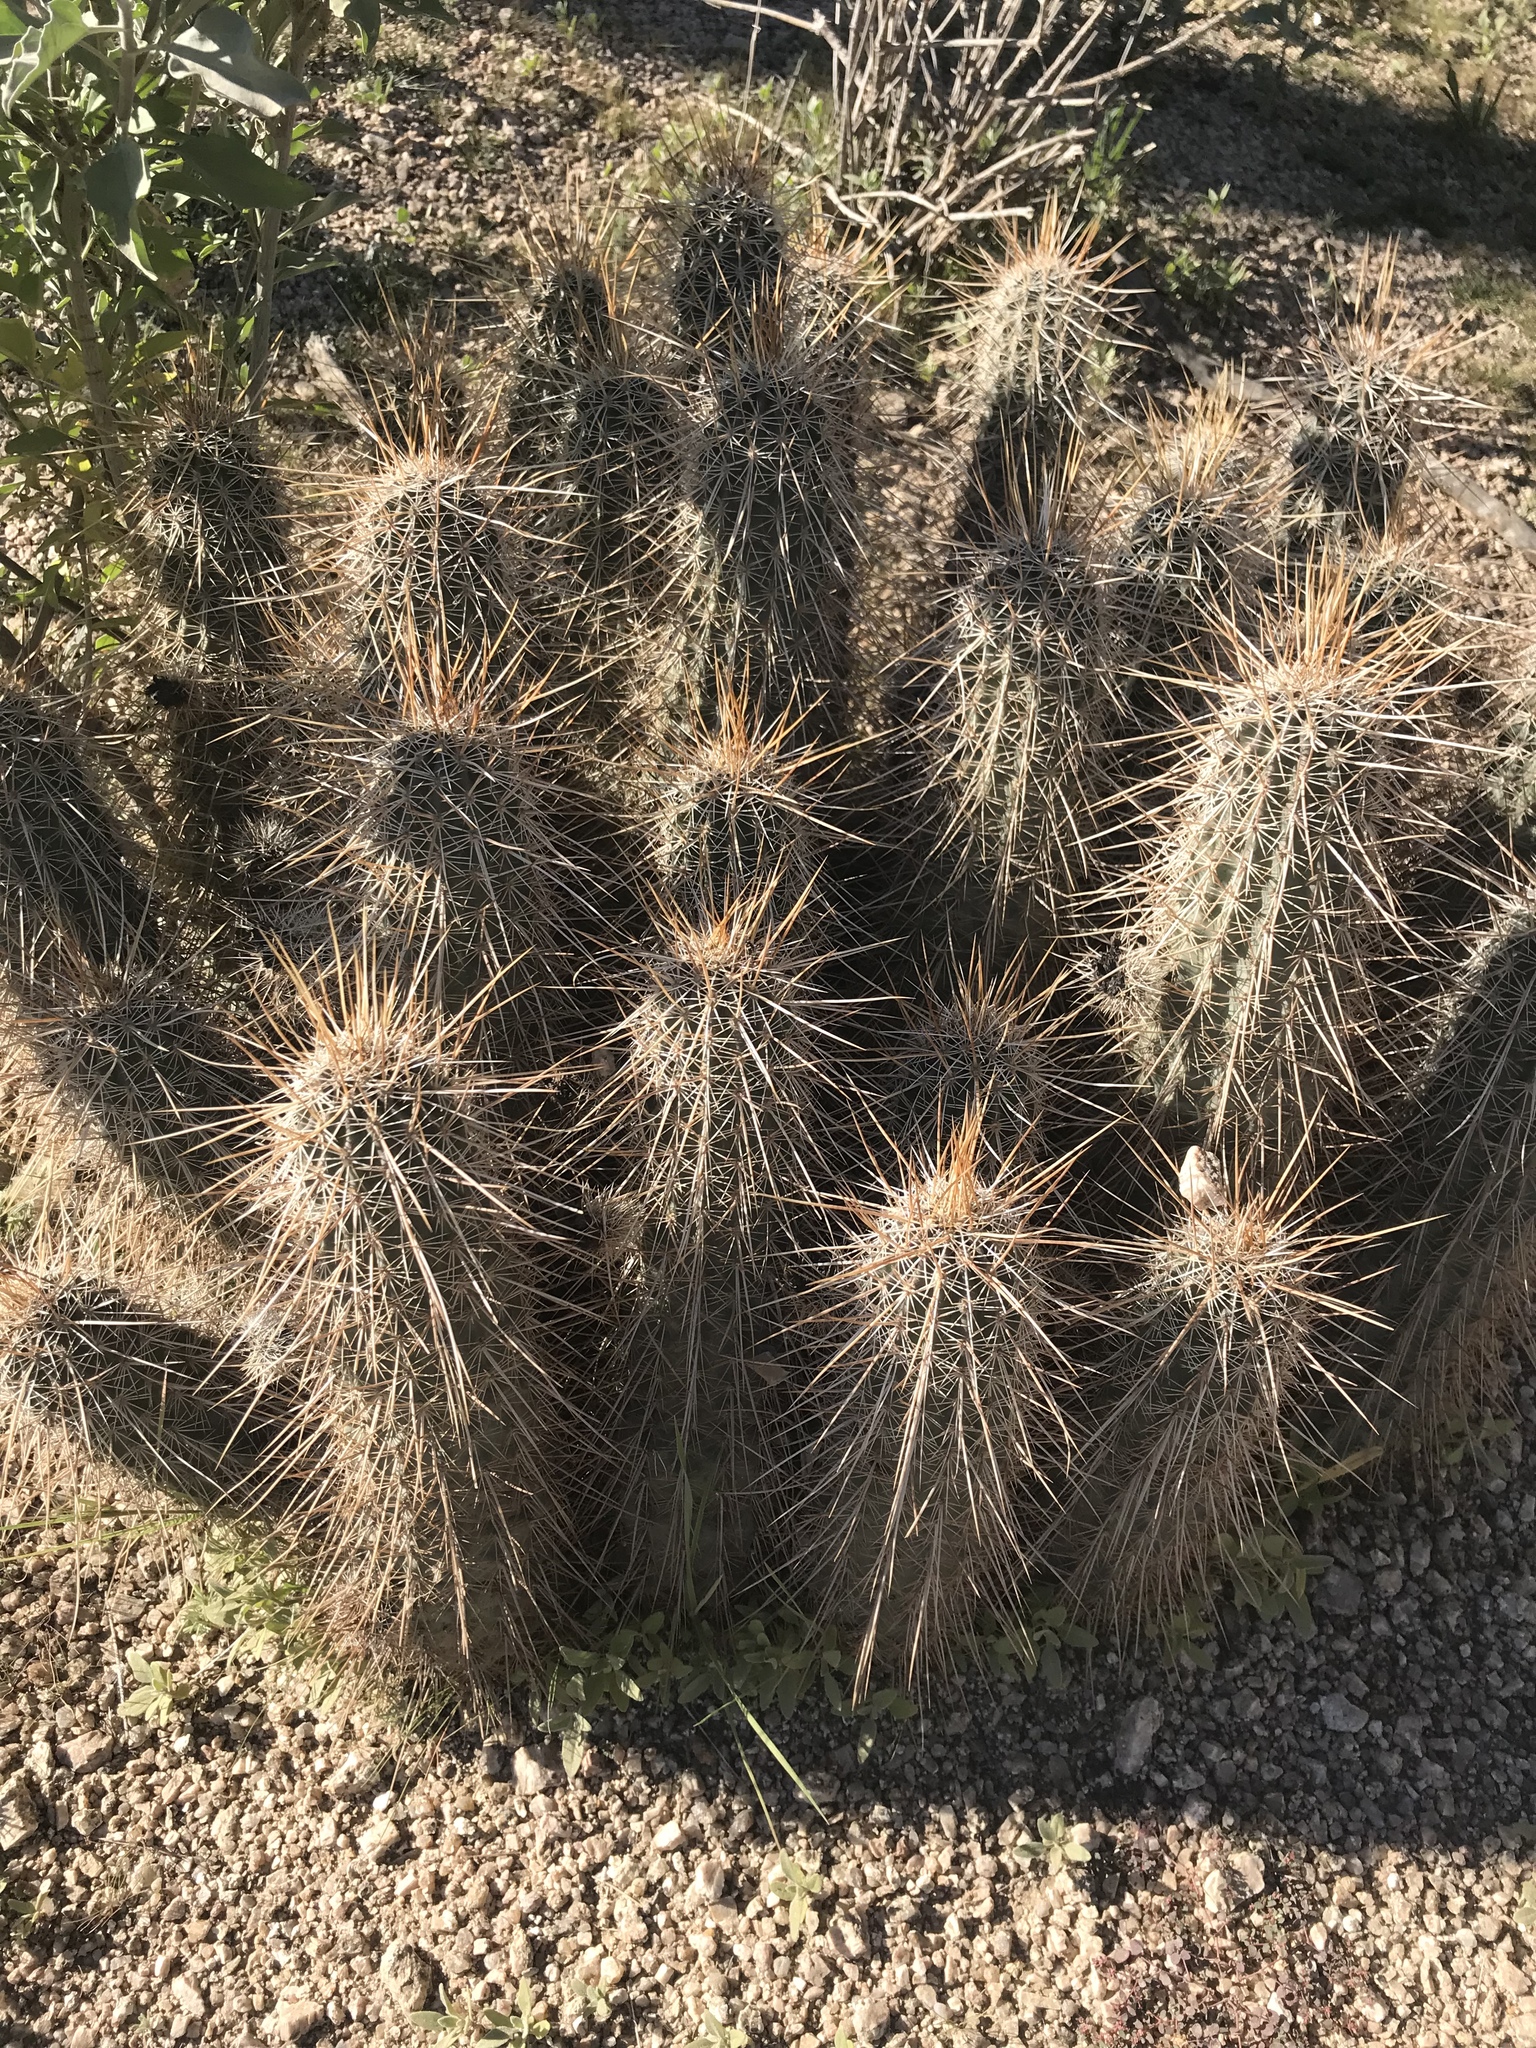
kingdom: Plantae
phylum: Tracheophyta
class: Magnoliopsida
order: Caryophyllales
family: Cactaceae
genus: Echinocereus
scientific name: Echinocereus engelmannii
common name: Engelmann's hedgehog cactus
